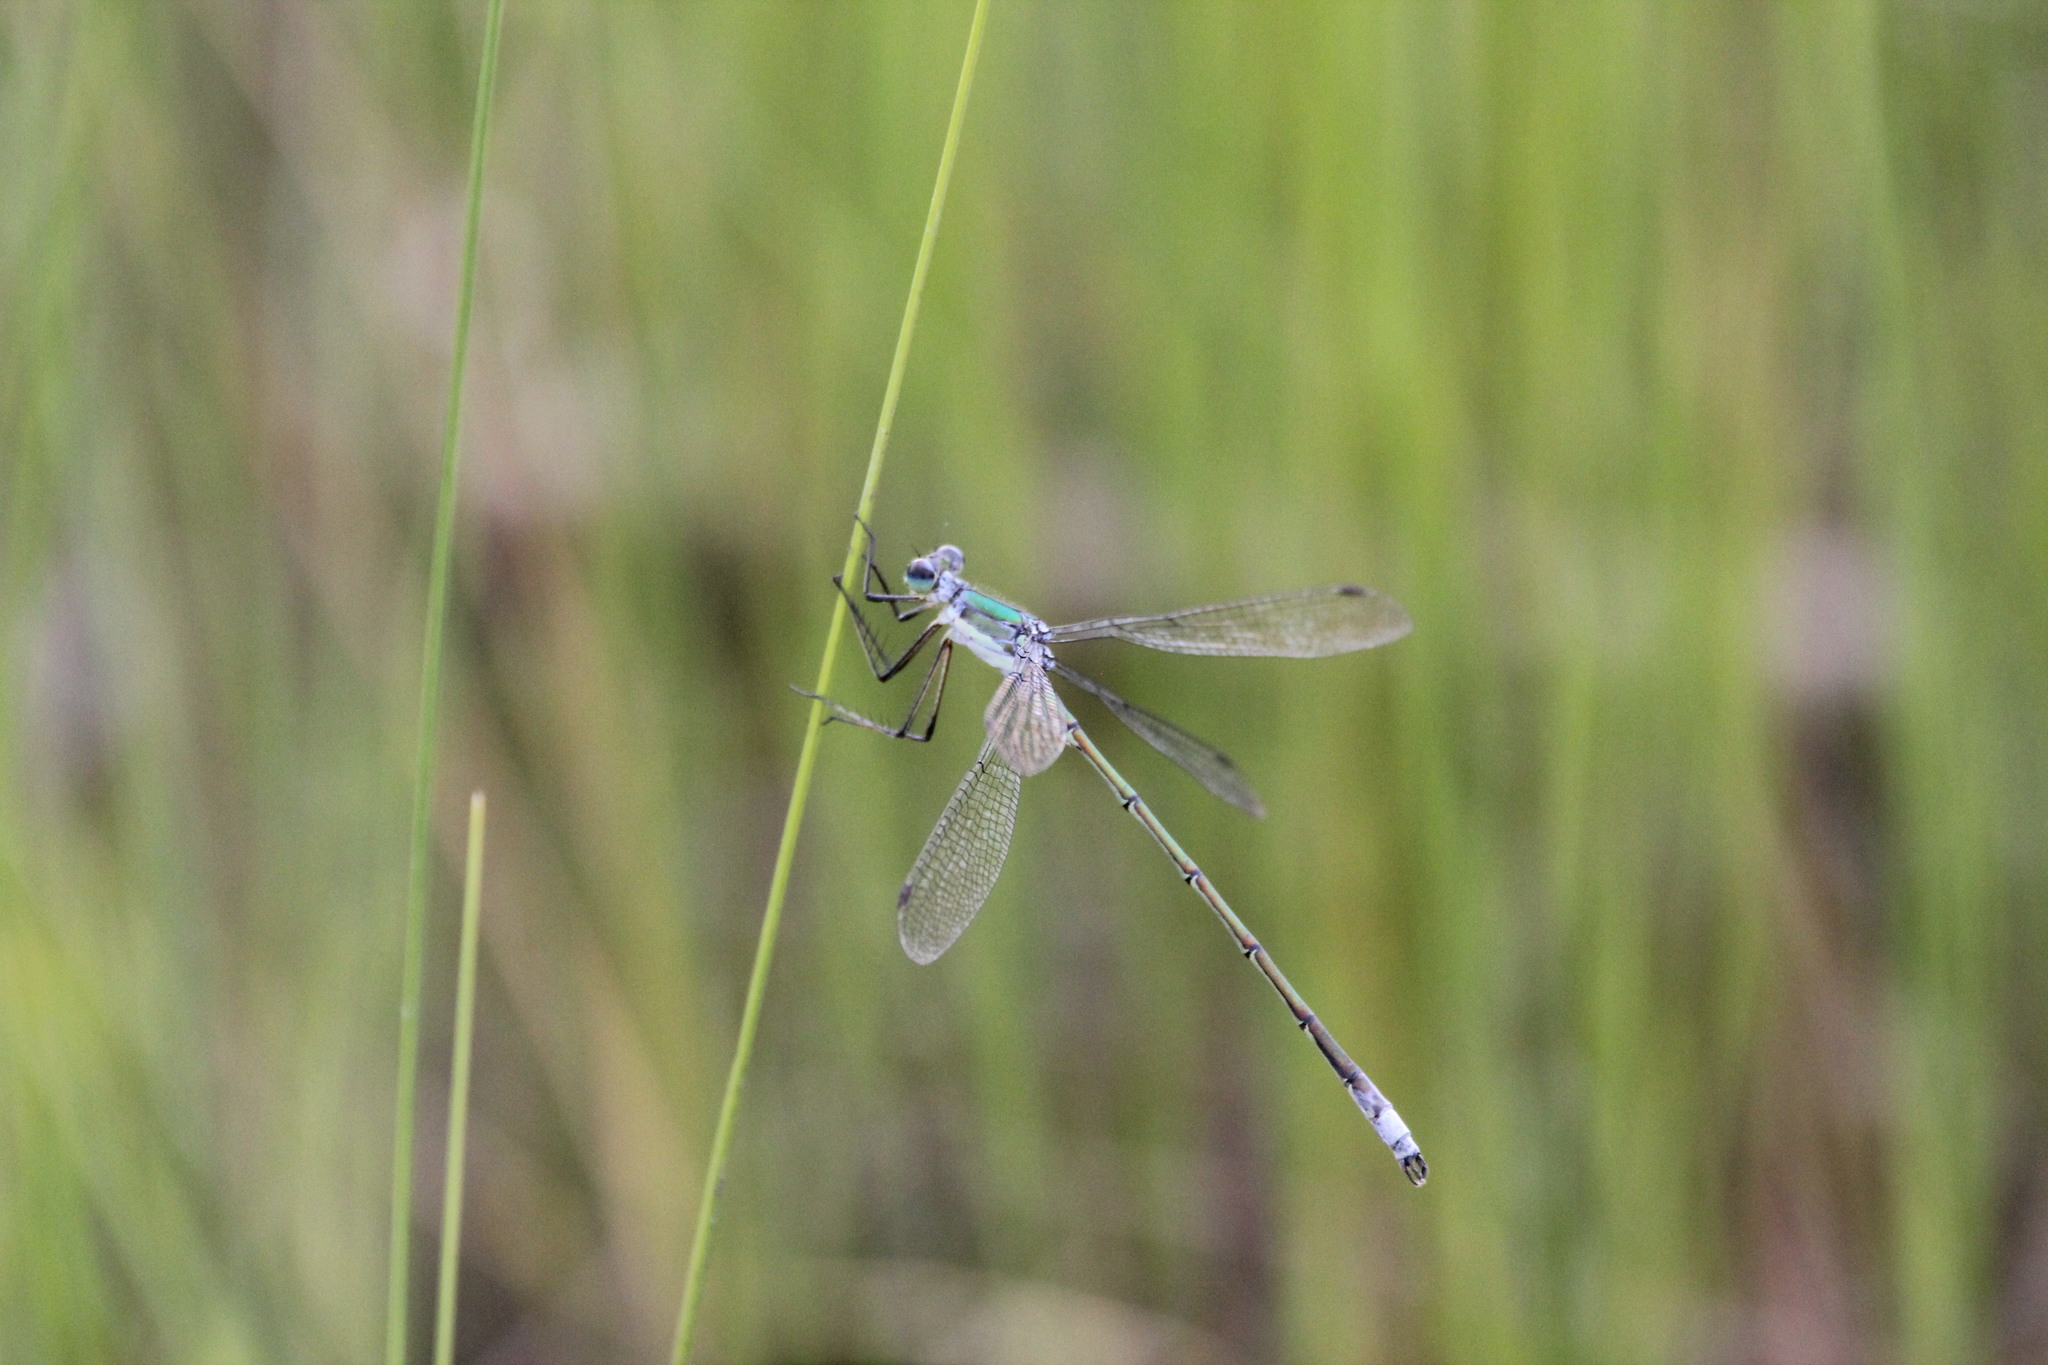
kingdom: Animalia
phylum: Arthropoda
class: Insecta
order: Odonata
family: Lestidae
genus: Lestes
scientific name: Lestes inaequalis
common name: Elegant spreadwing
